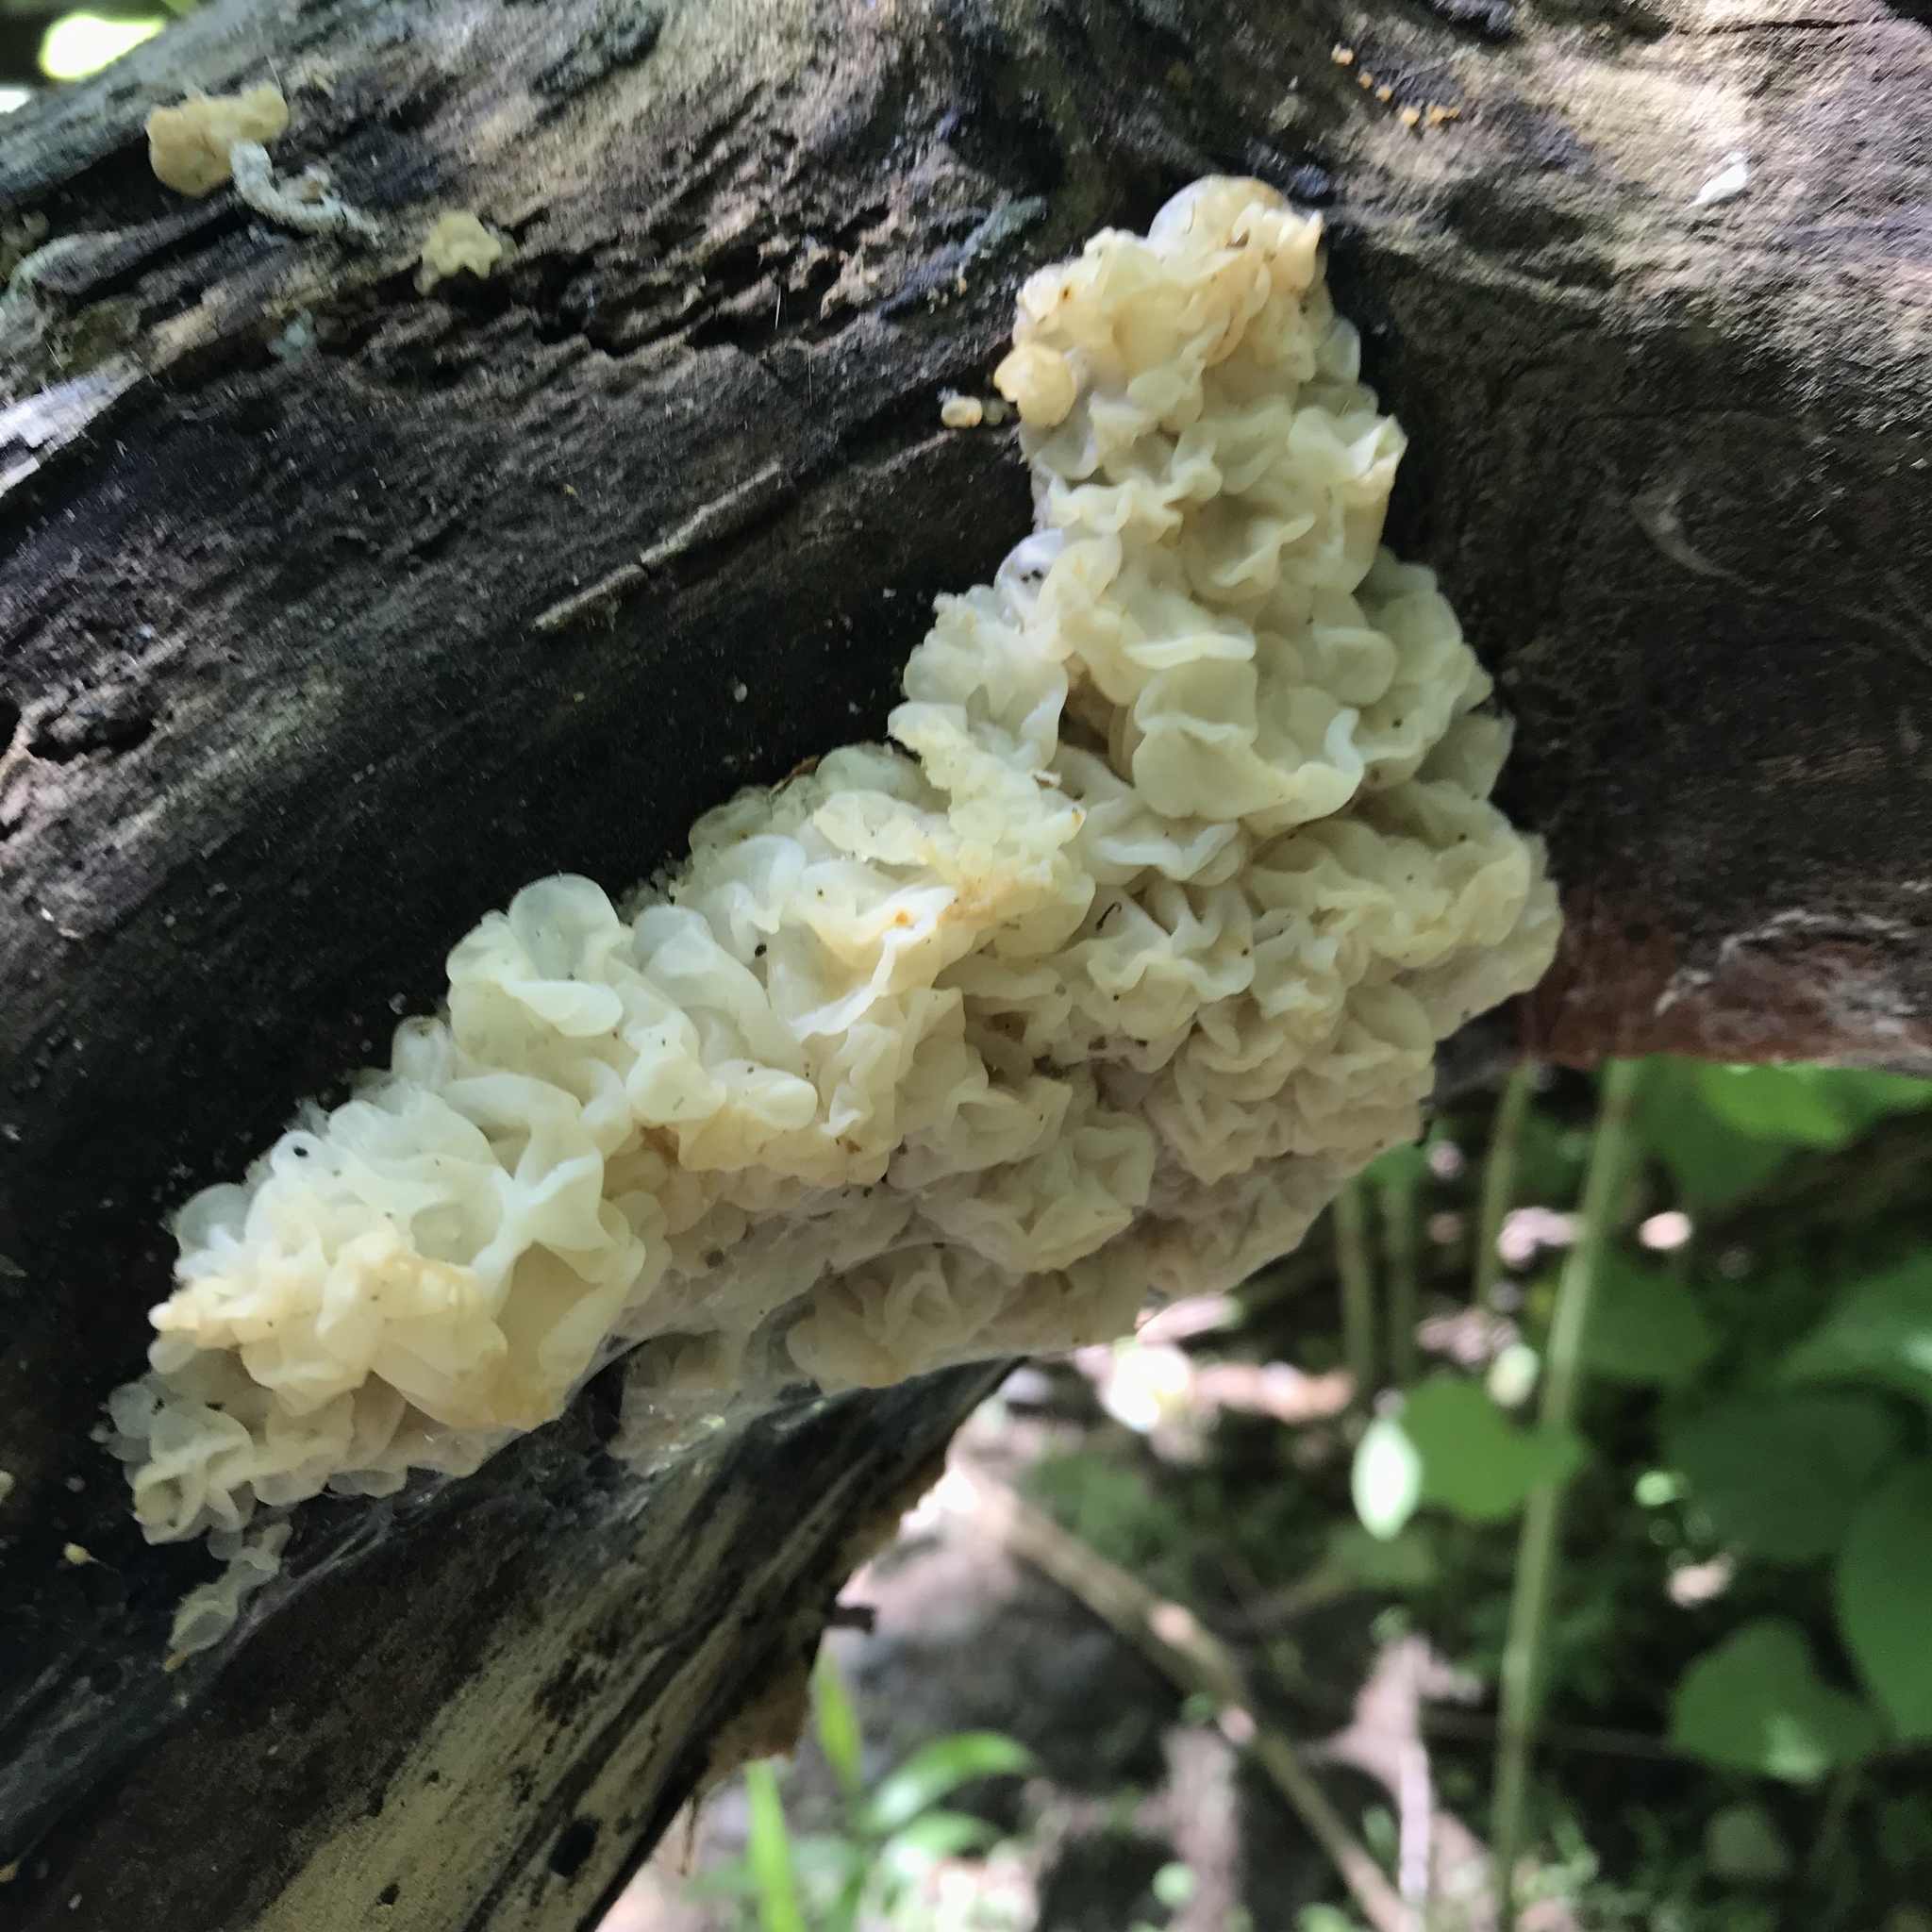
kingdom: Fungi
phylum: Basidiomycota
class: Agaricomycetes
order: Auriculariales
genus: Ductifera
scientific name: Ductifera pululahuana
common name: White jelly fungus
